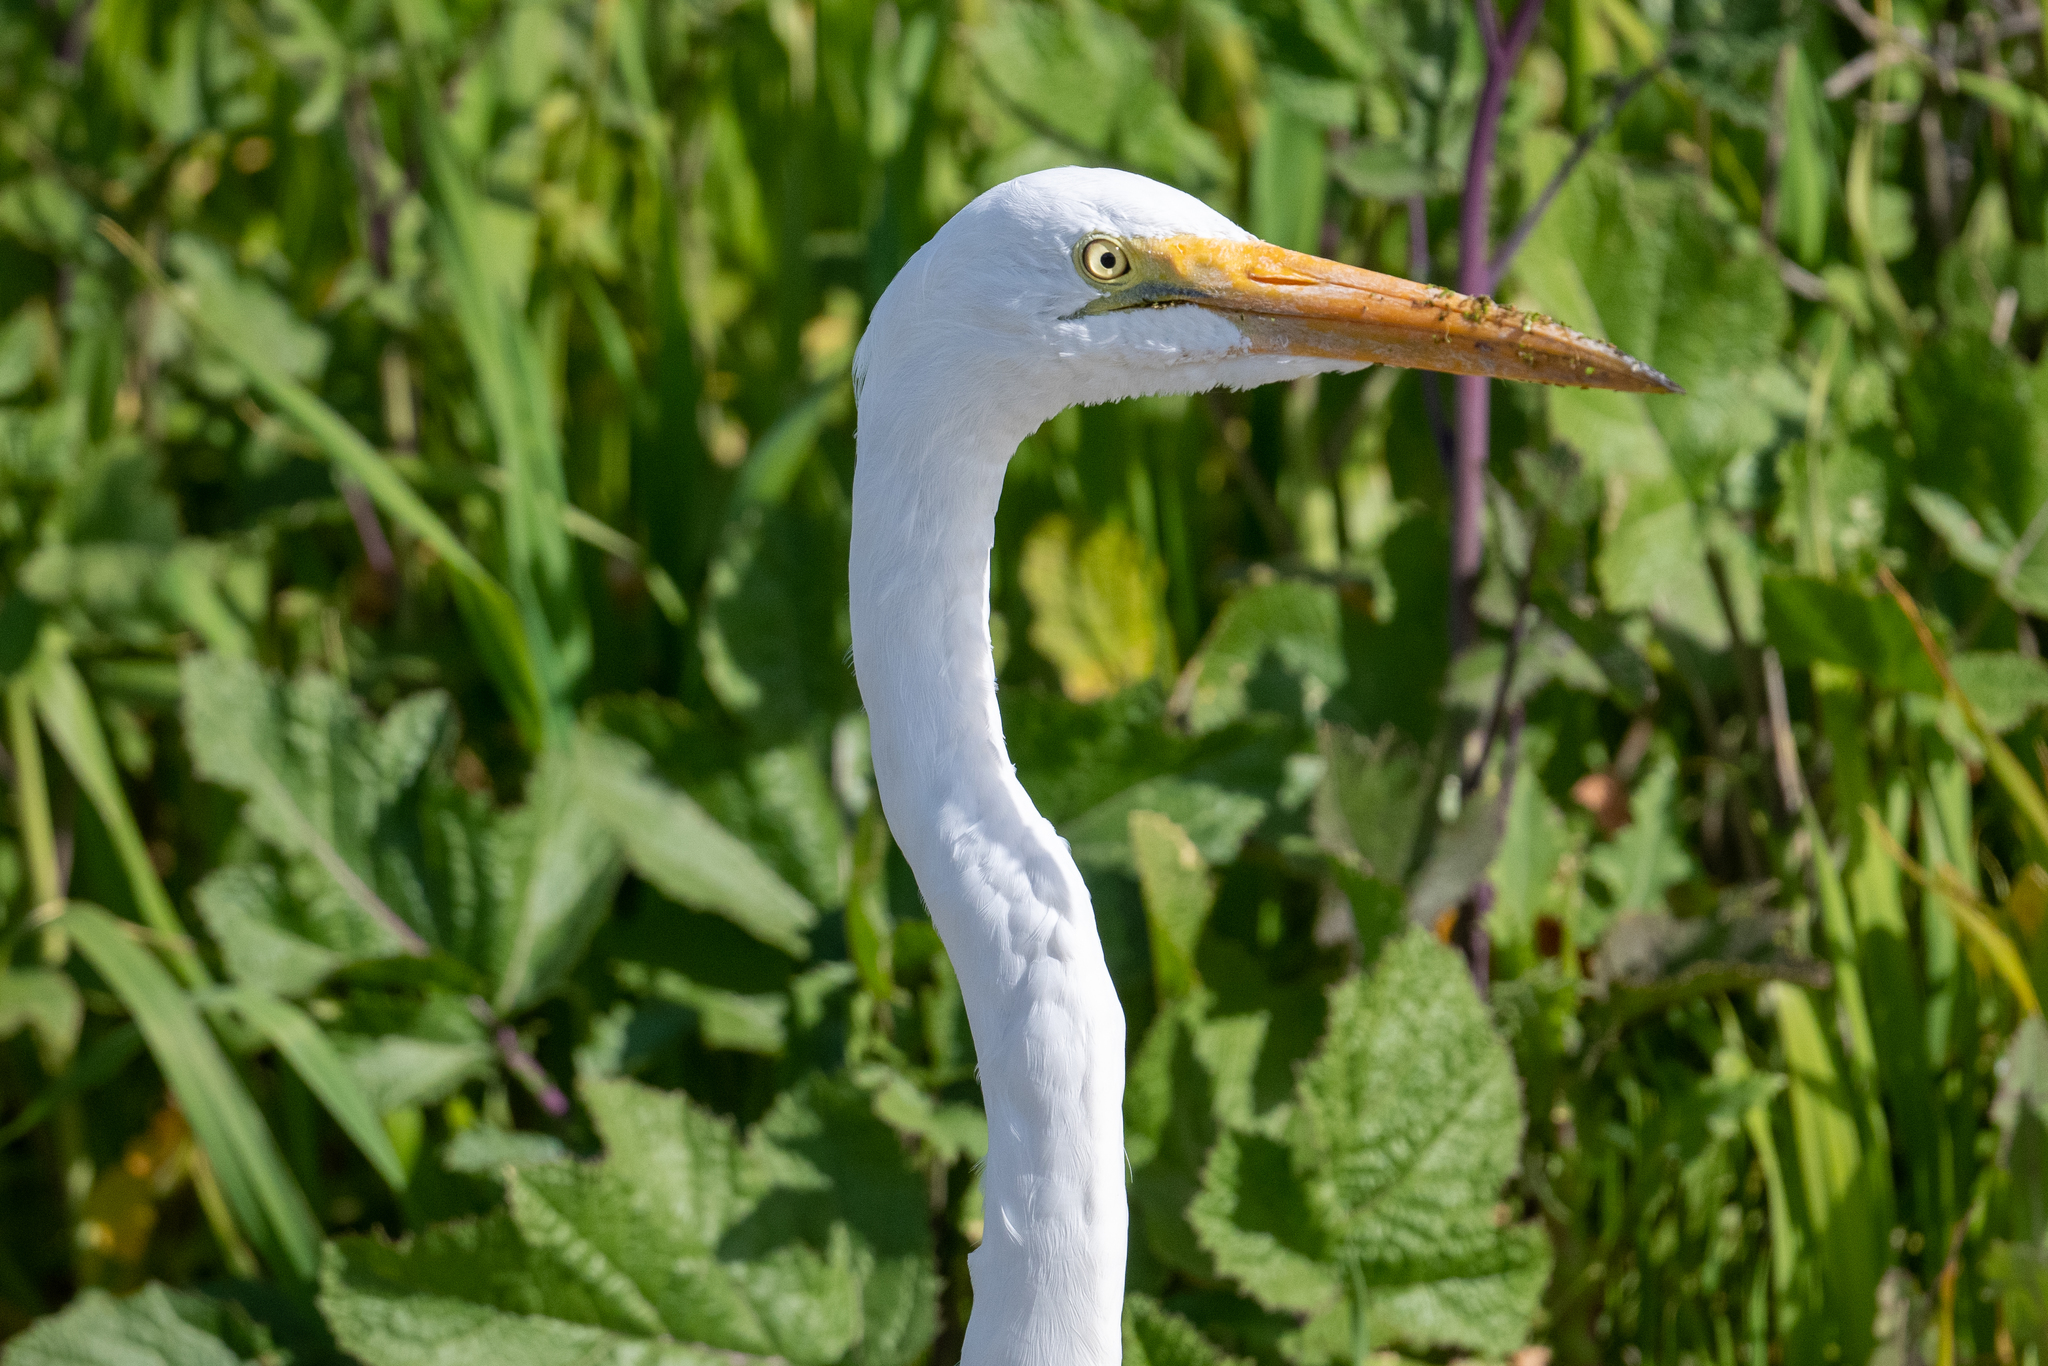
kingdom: Animalia
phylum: Chordata
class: Aves
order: Pelecaniformes
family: Ardeidae
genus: Ardea
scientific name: Ardea alba
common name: Great egret
